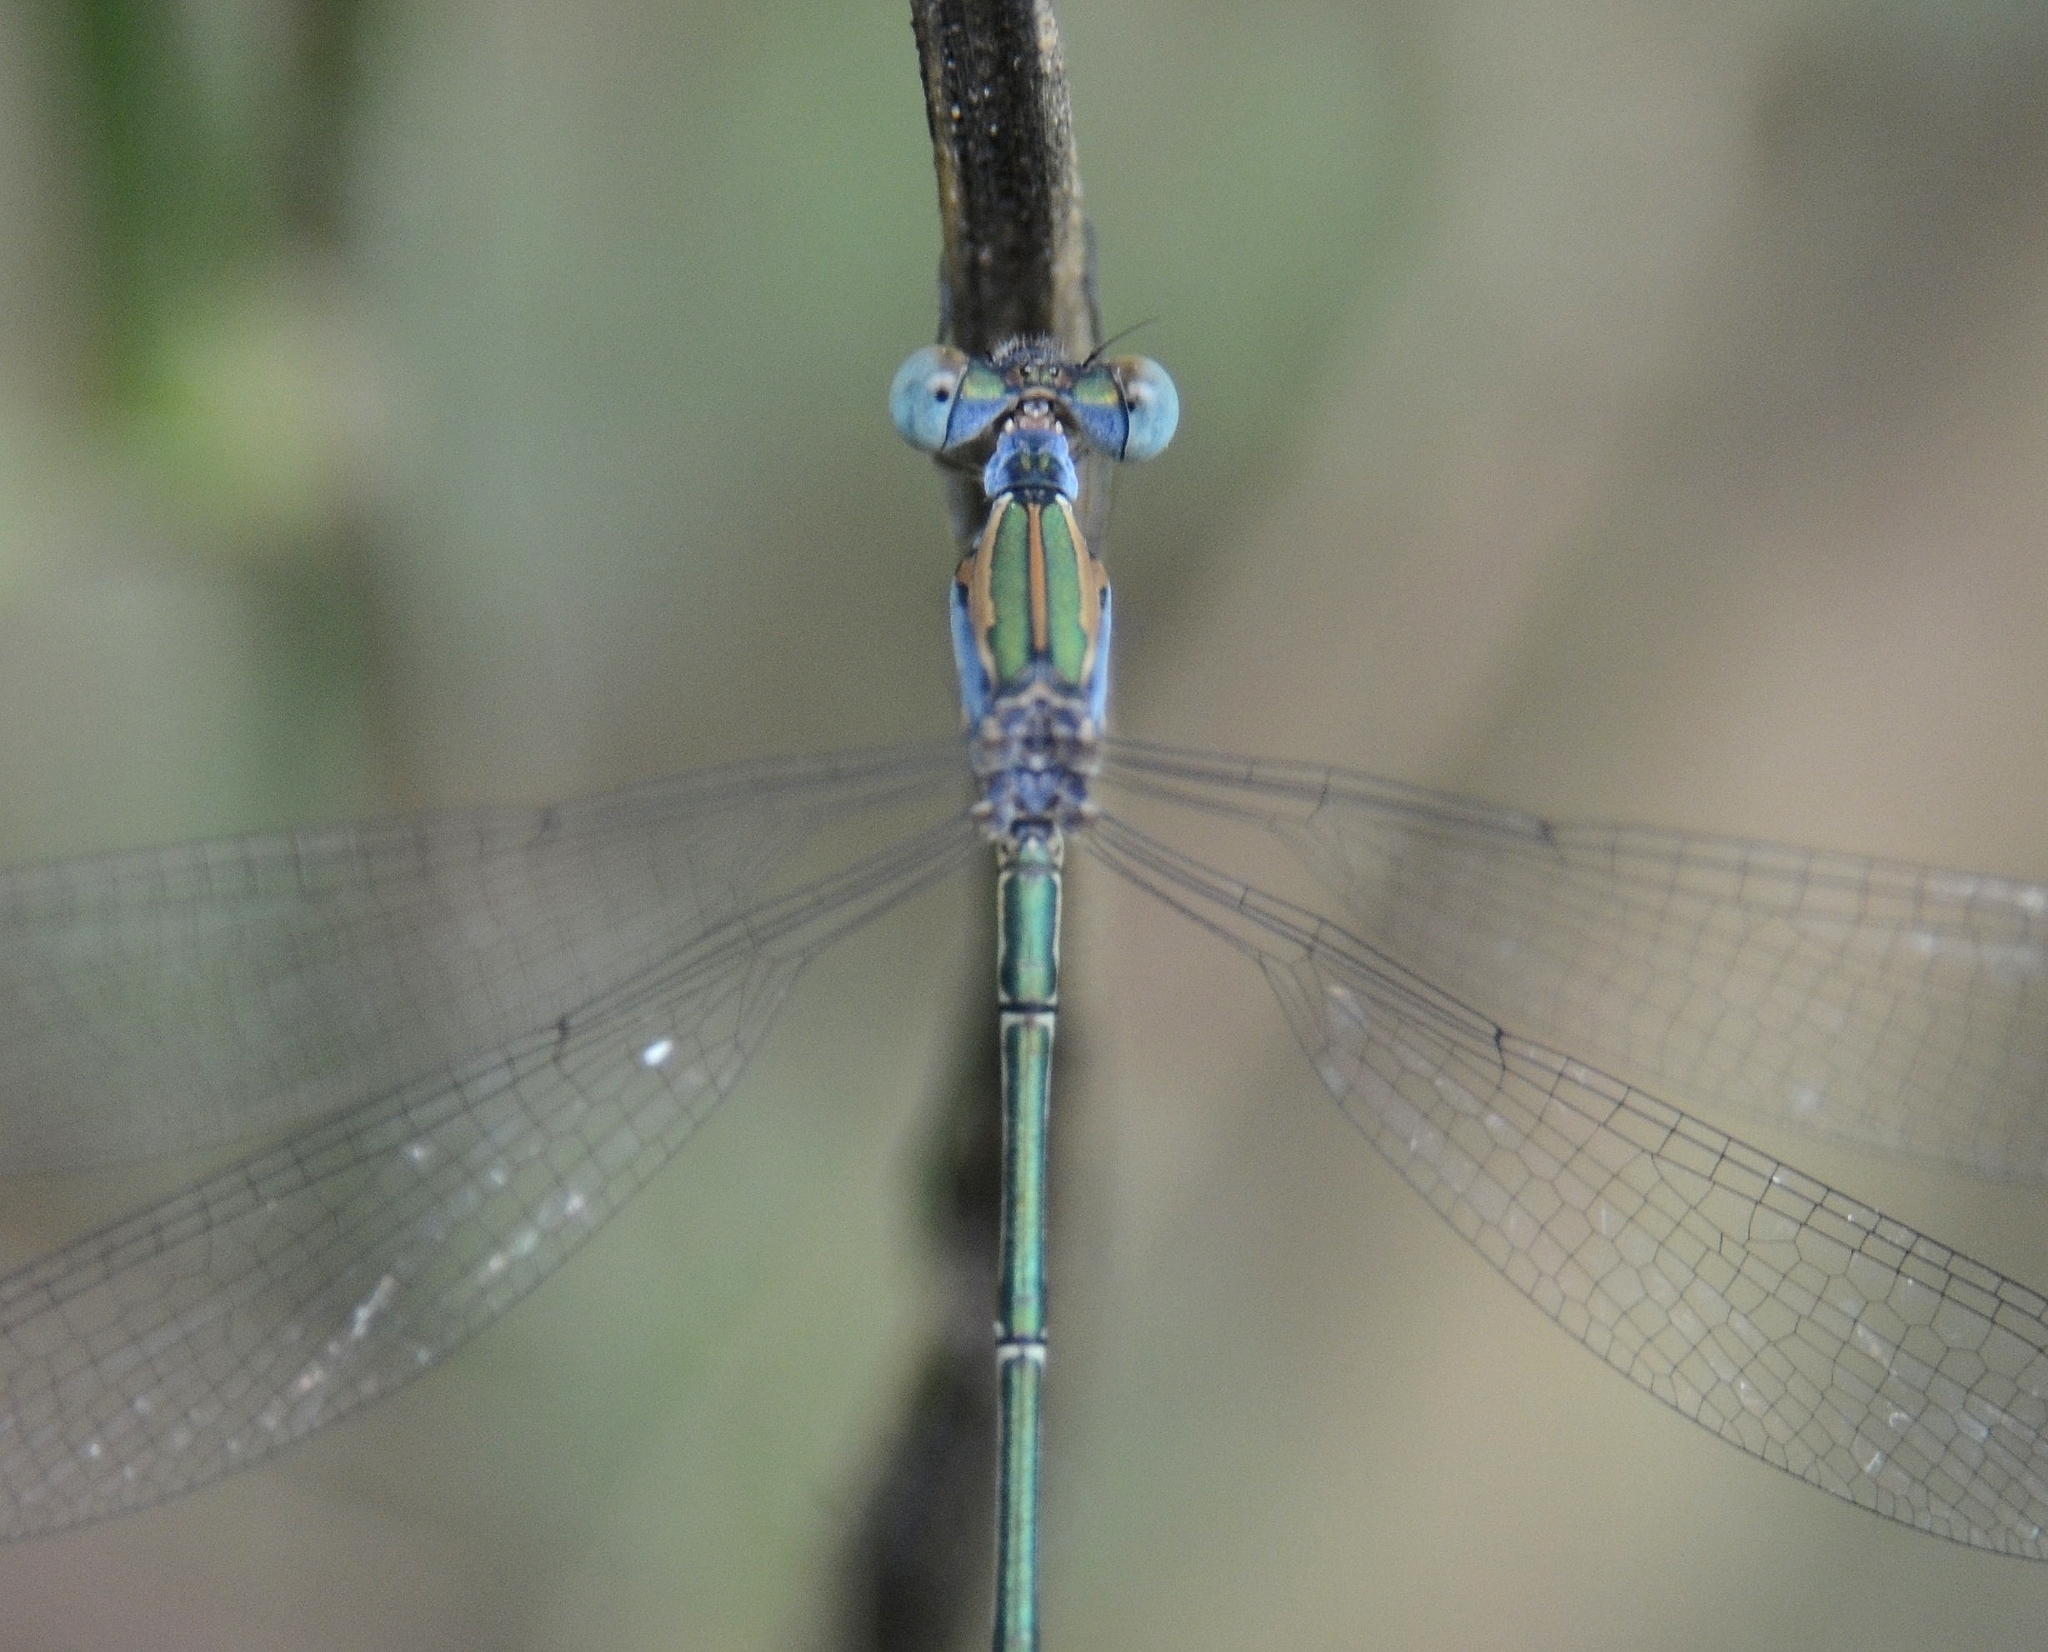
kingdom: Animalia
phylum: Arthropoda
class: Insecta
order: Odonata
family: Lestidae
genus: Lestes
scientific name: Lestes elatus
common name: Emerald spreadwing
